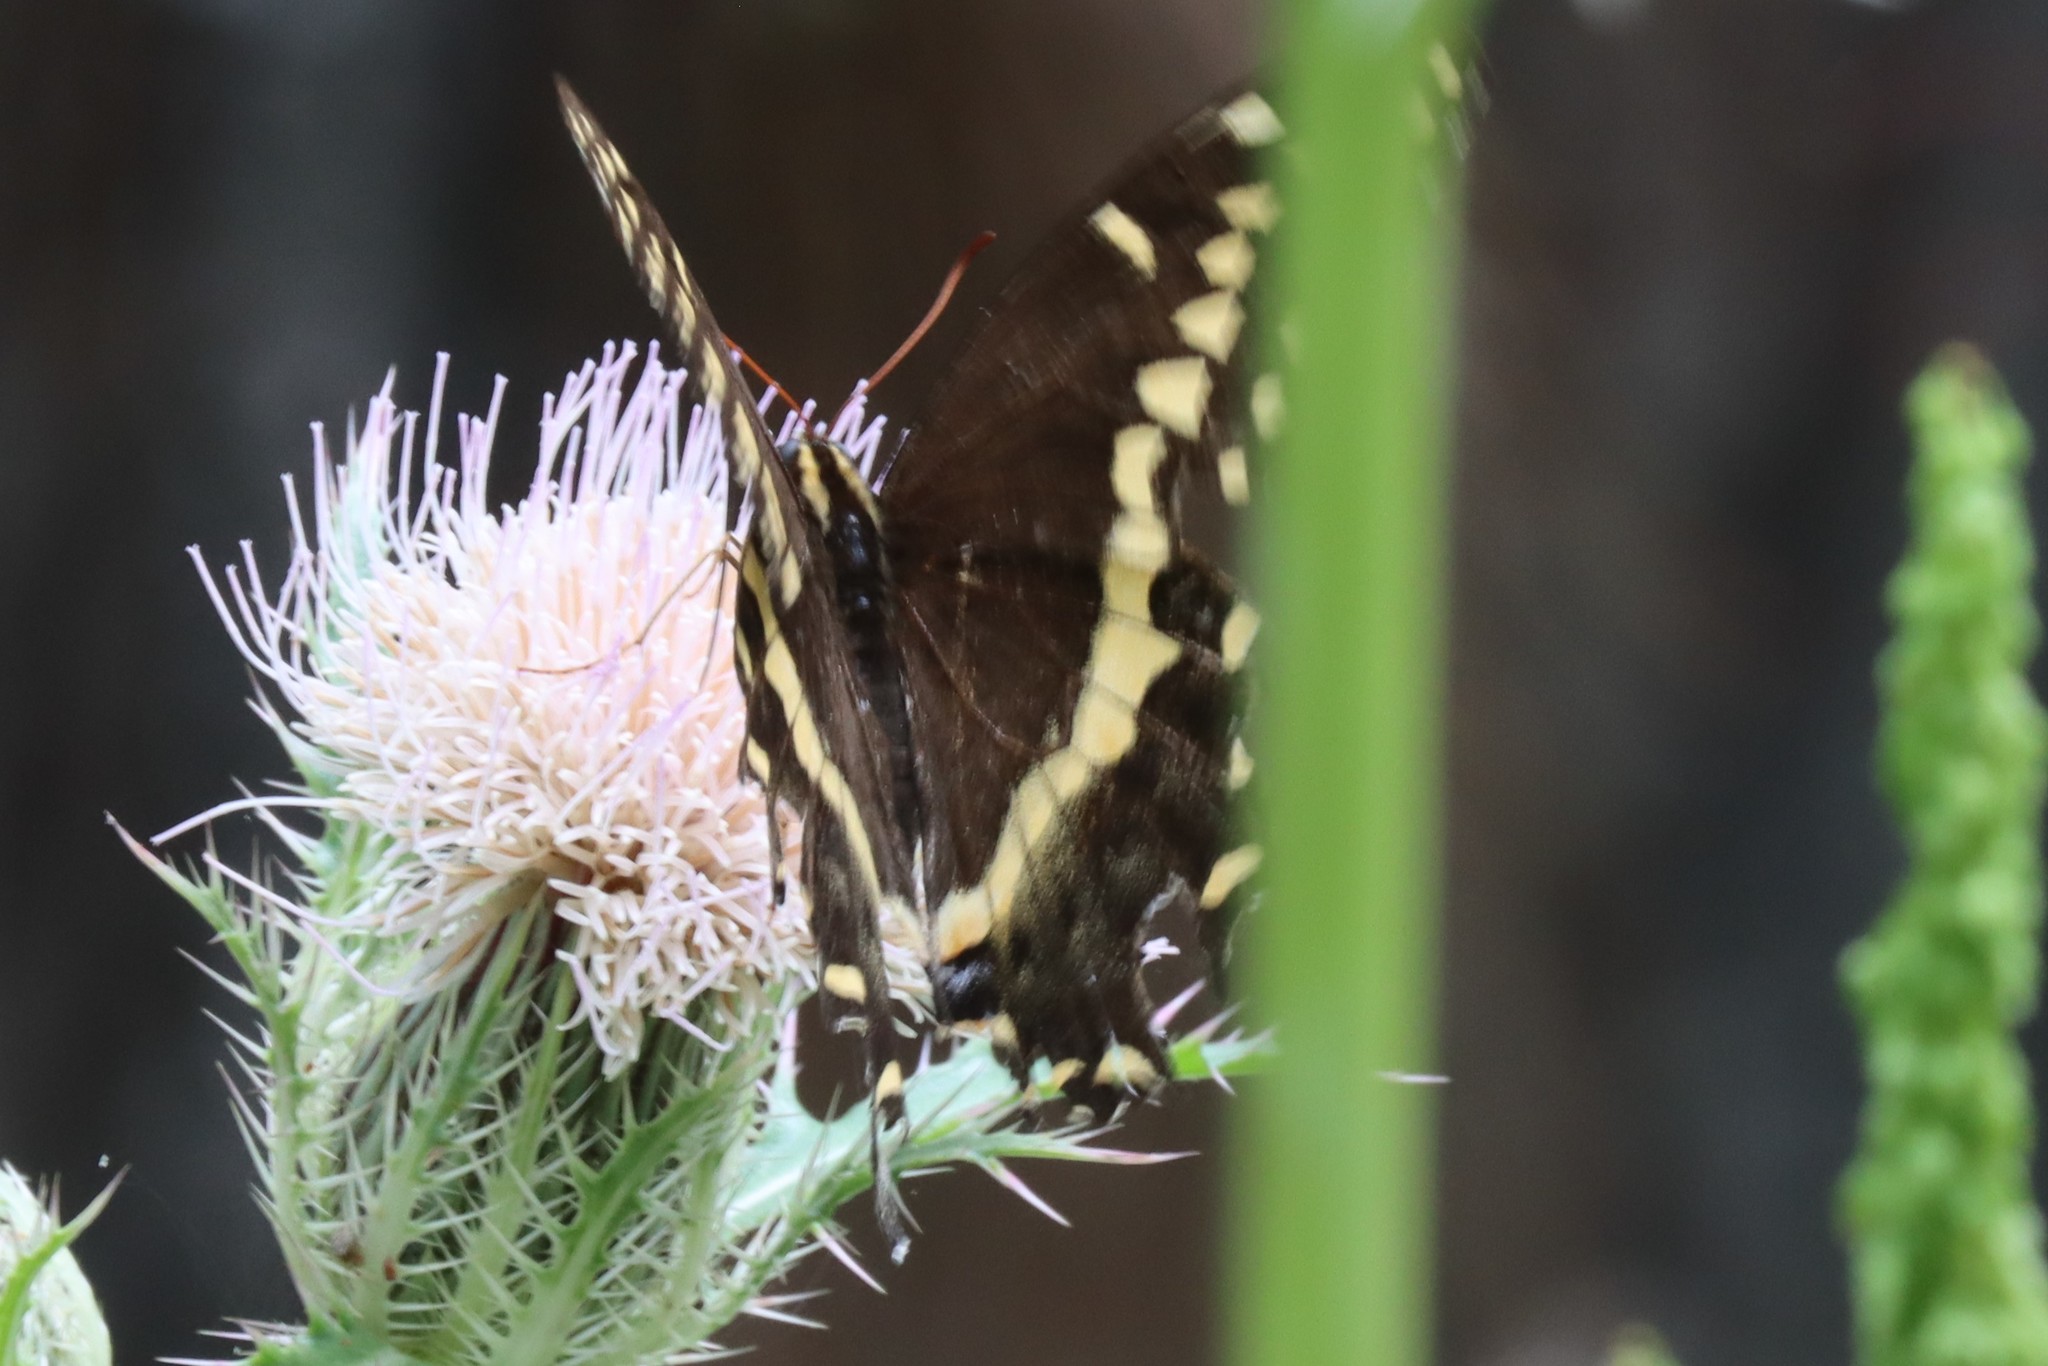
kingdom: Animalia
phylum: Arthropoda
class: Insecta
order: Lepidoptera
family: Papilionidae
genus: Papilio
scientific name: Papilio palamedes
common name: Palamedes swallowtail
